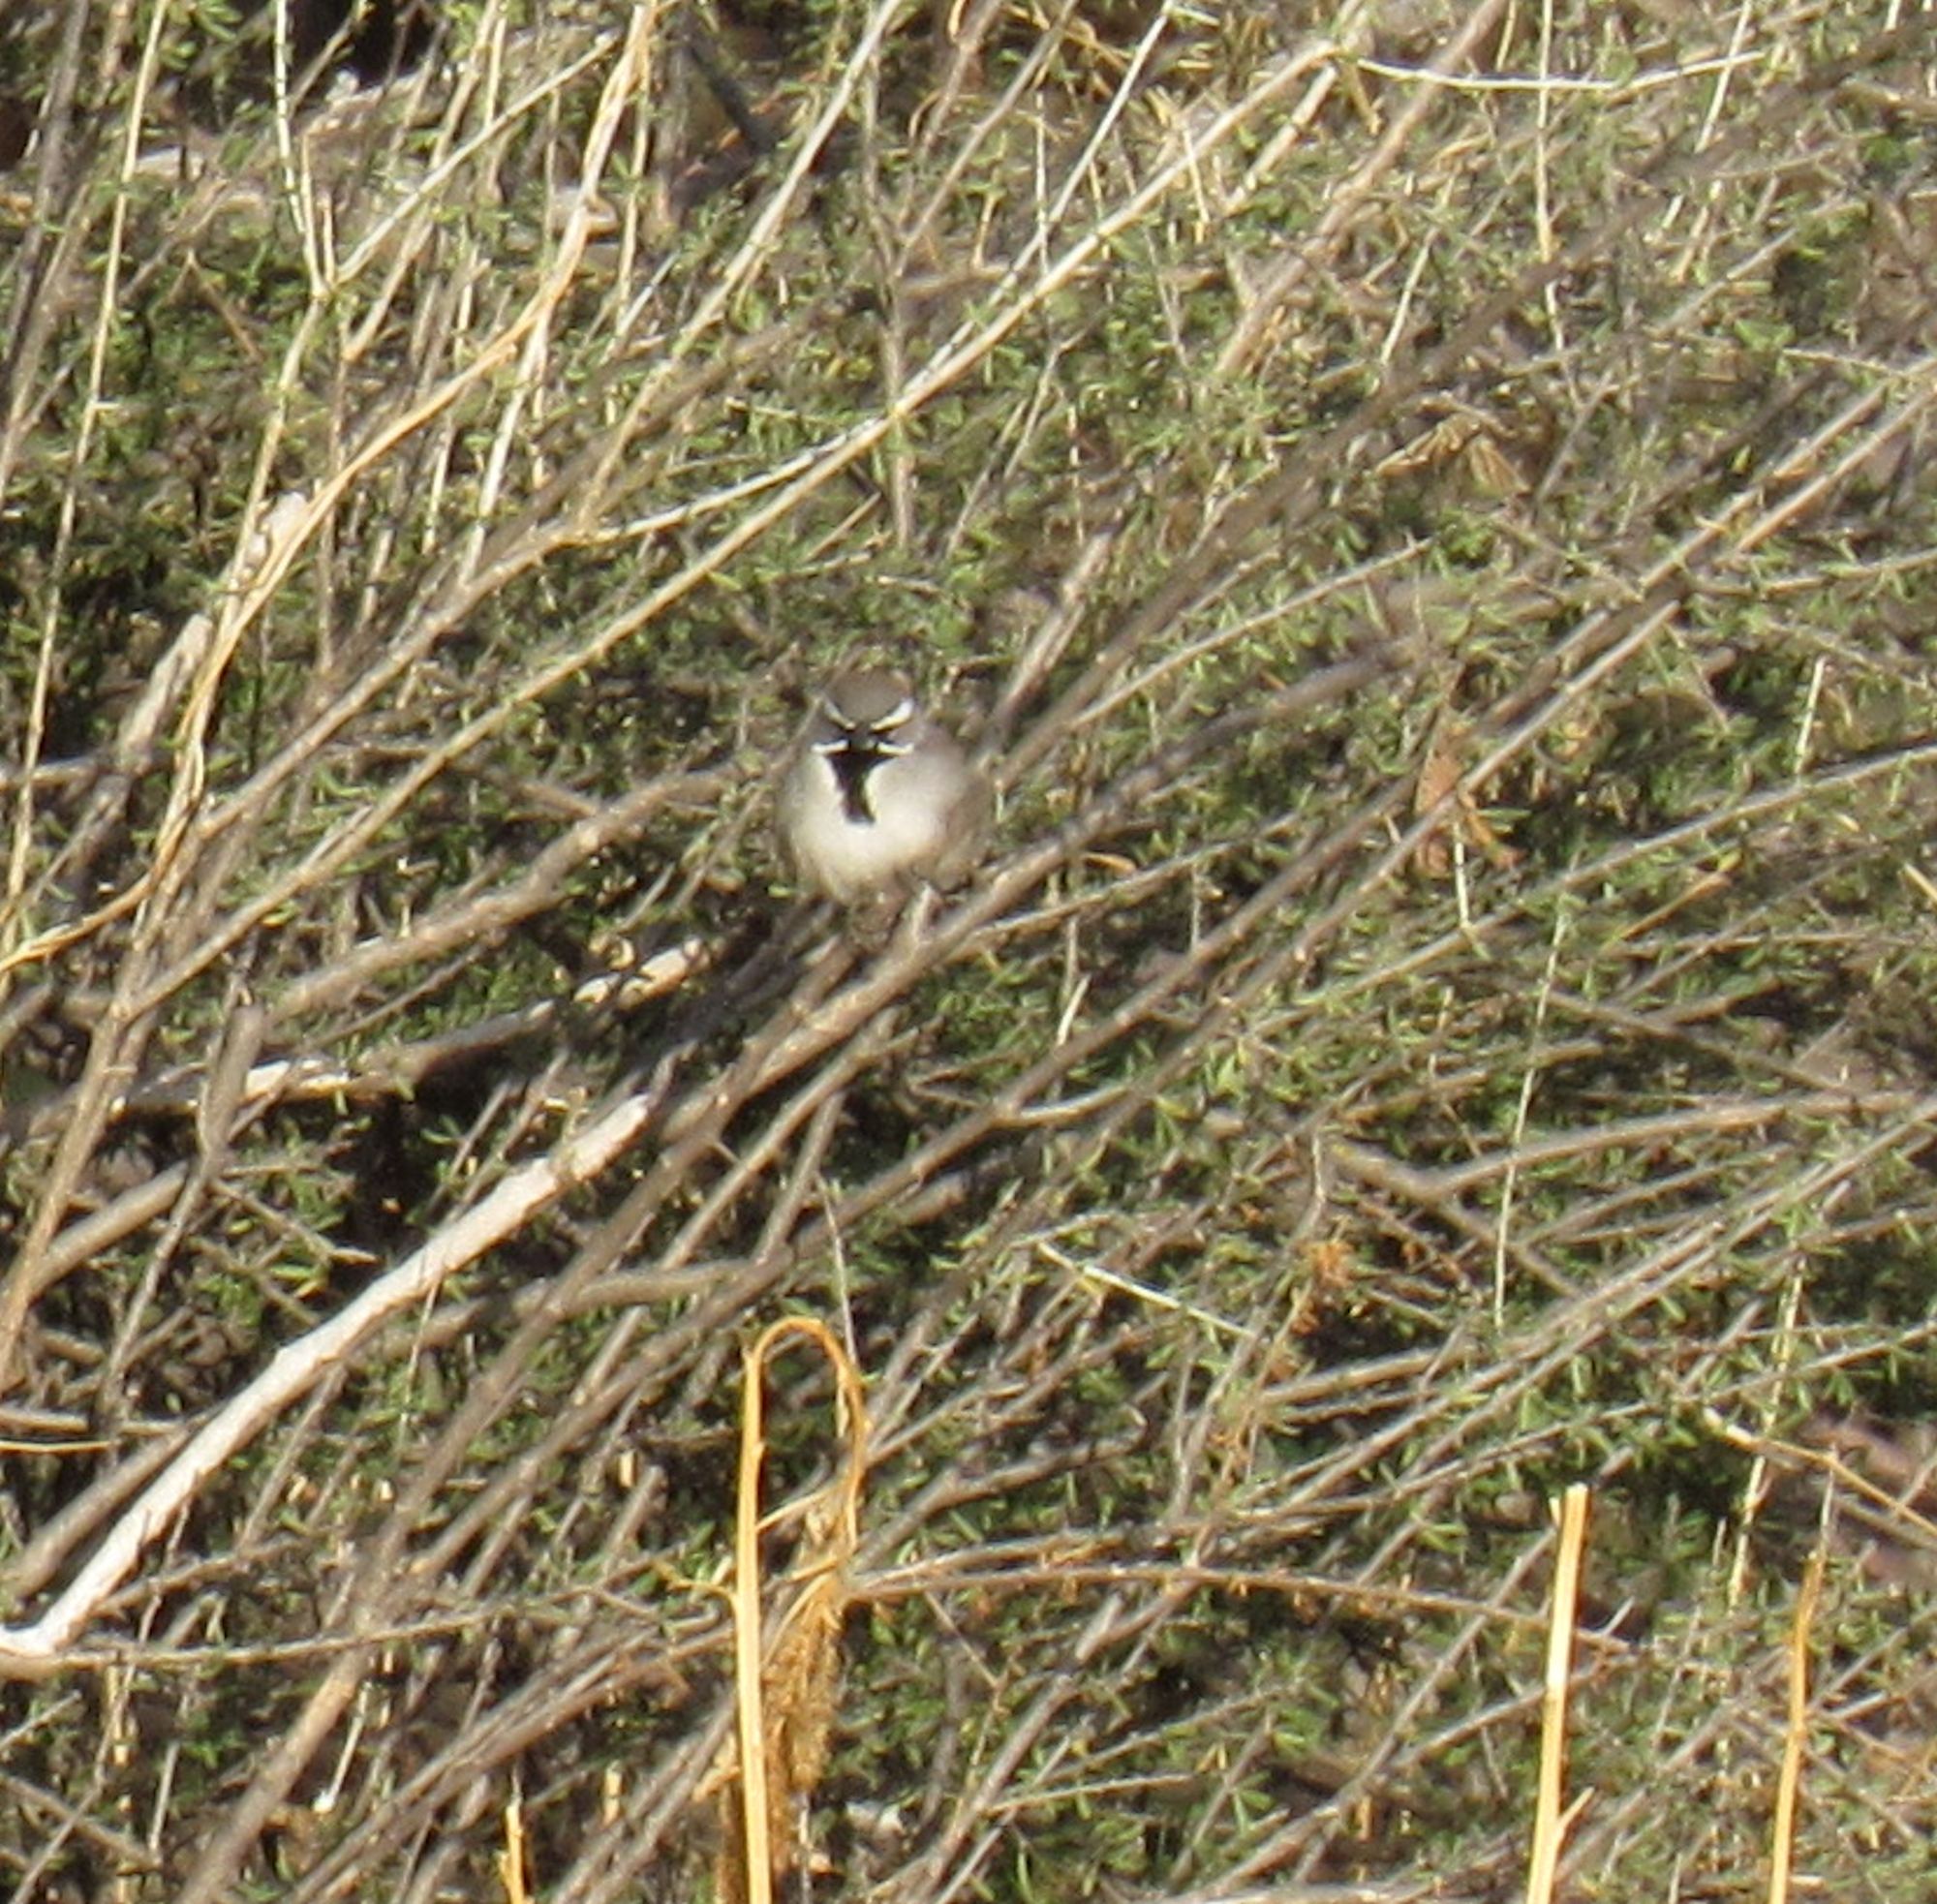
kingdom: Animalia
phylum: Chordata
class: Aves
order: Passeriformes
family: Passerellidae
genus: Amphispiza
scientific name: Amphispiza bilineata
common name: Black-throated sparrow
